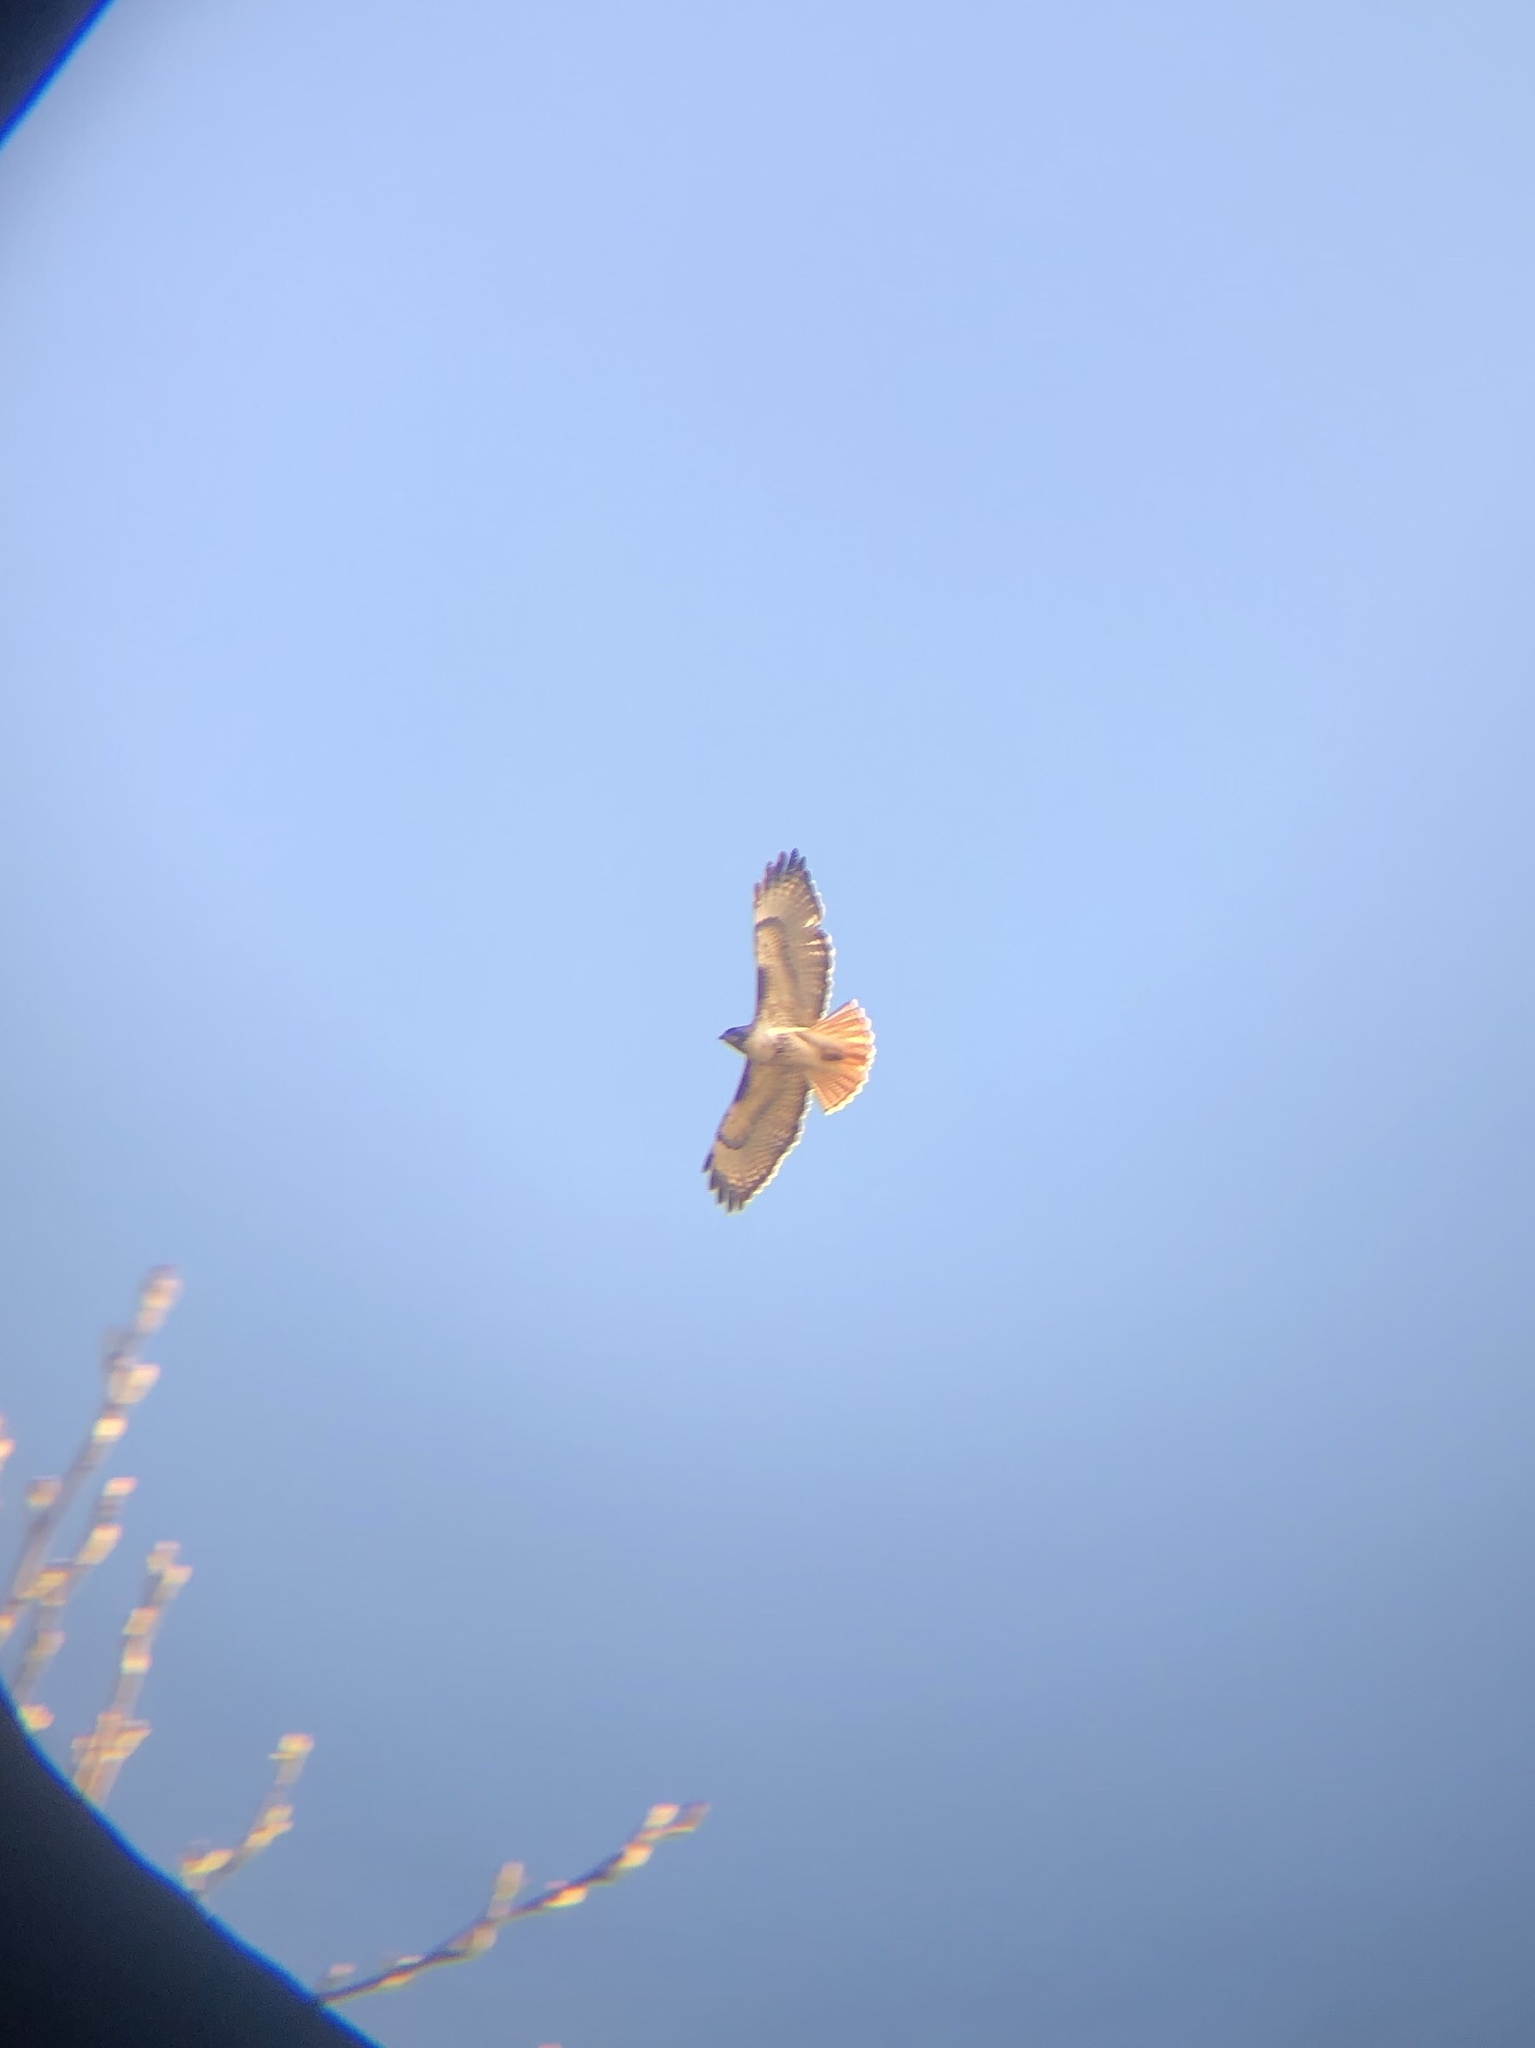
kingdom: Animalia
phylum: Chordata
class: Aves
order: Accipitriformes
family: Accipitridae
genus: Buteo
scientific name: Buteo jamaicensis
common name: Red-tailed hawk
